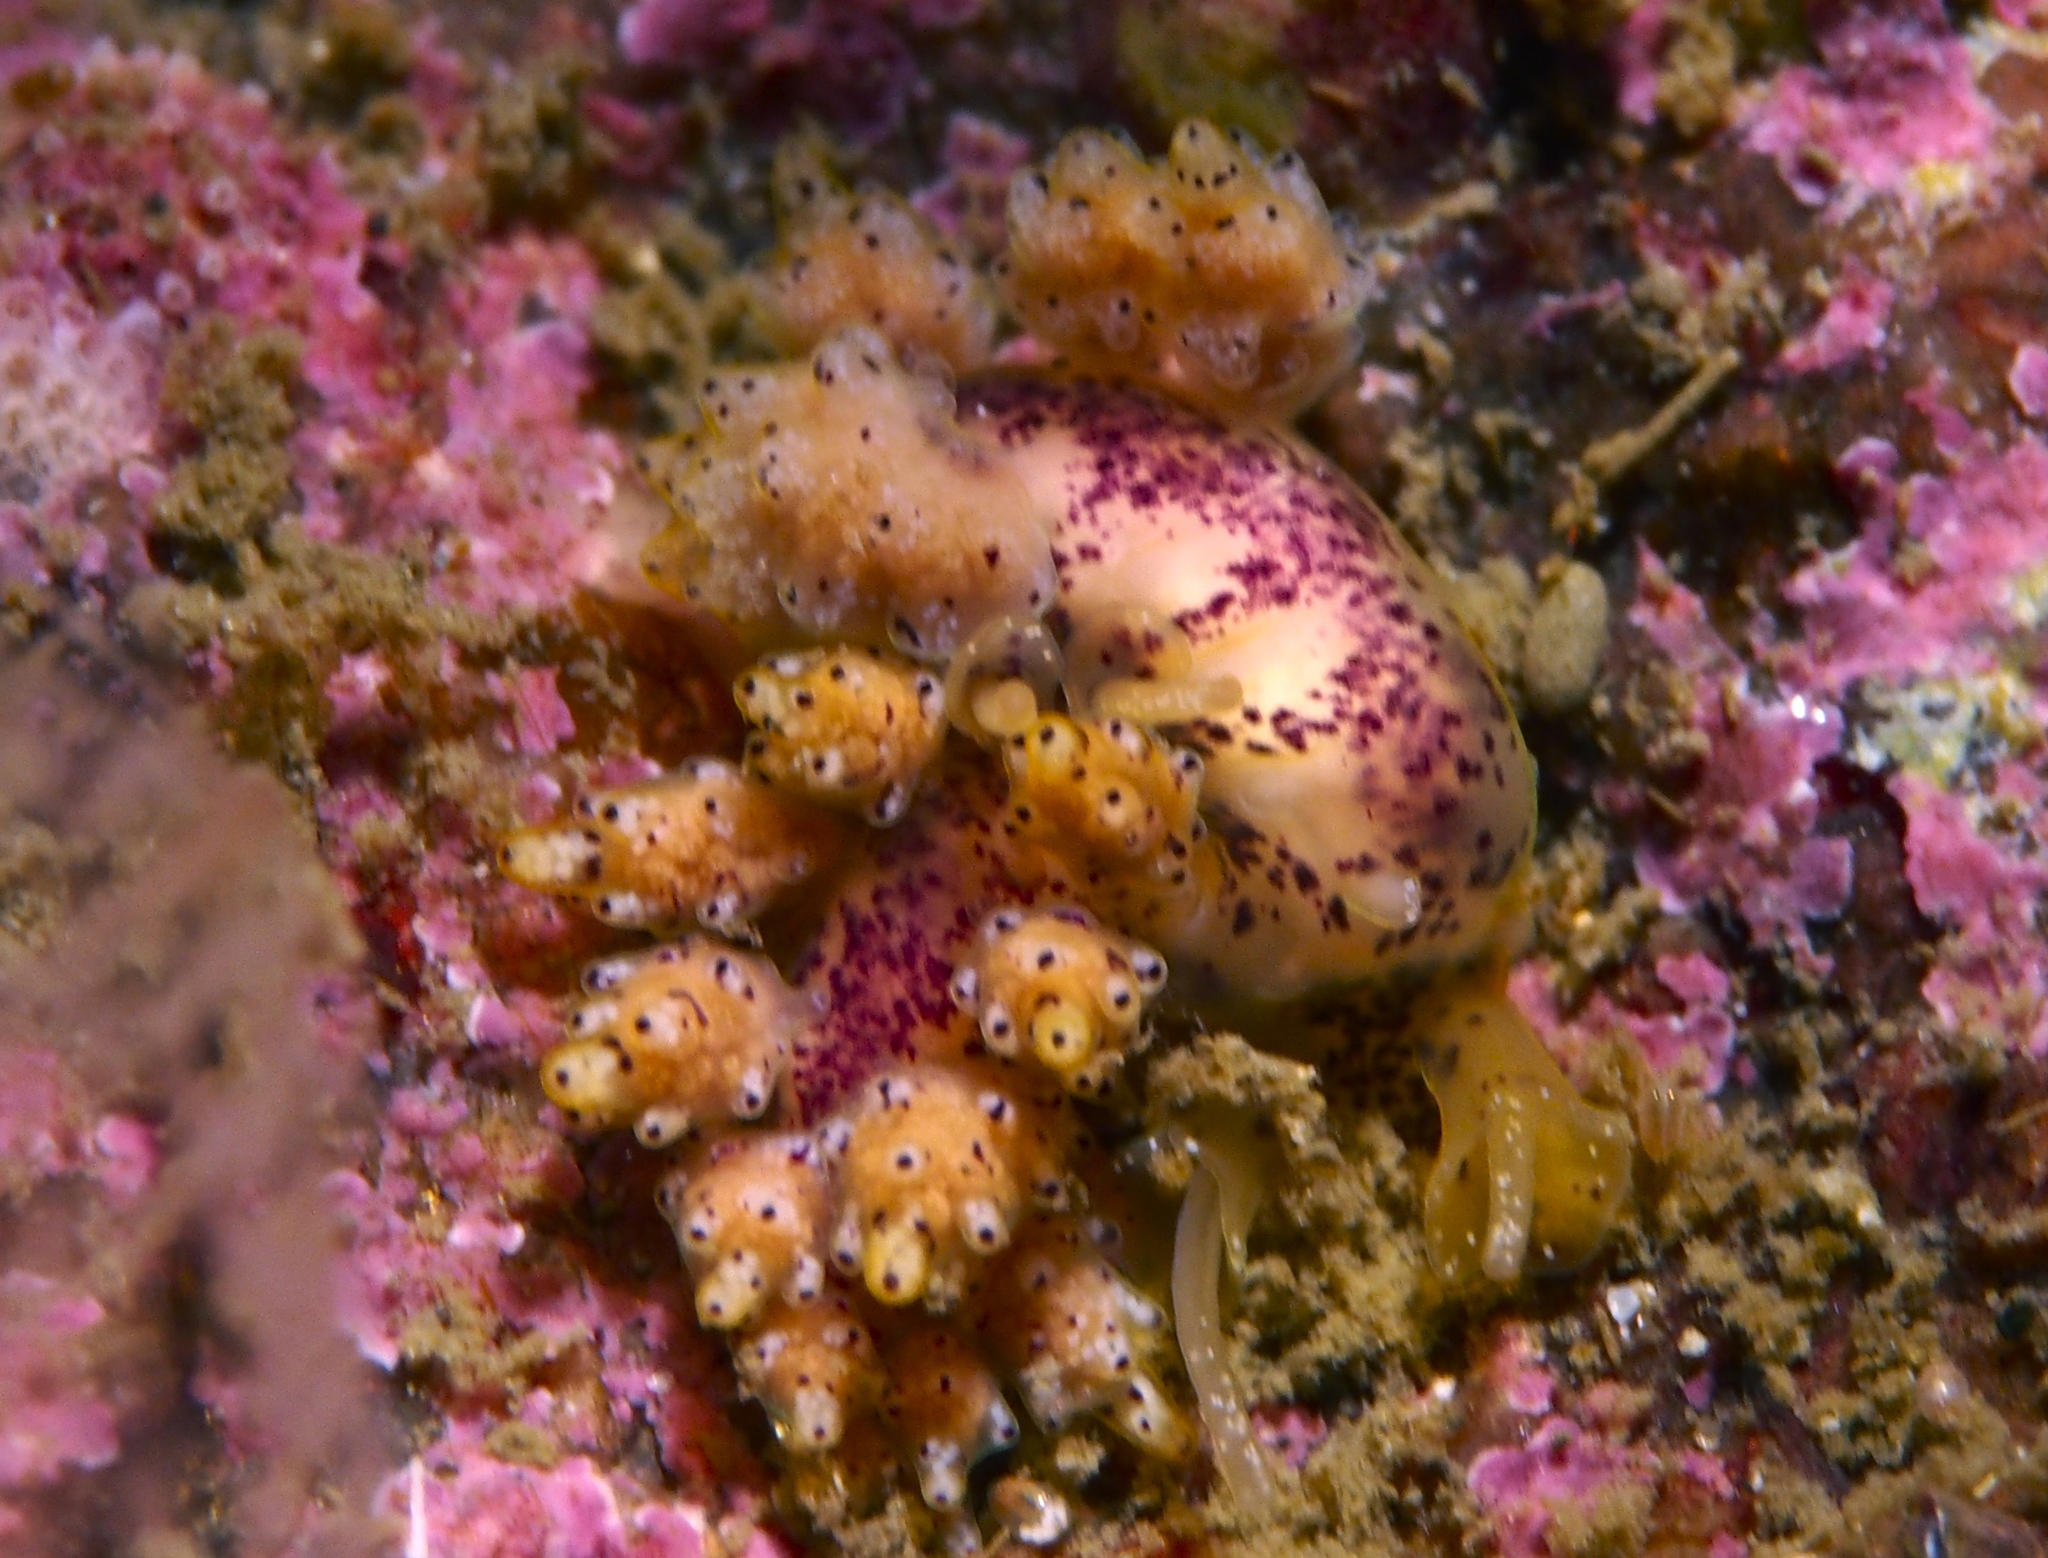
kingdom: Animalia
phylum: Mollusca
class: Gastropoda
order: Nudibranchia
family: Dotidae
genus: Doto
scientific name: Doto dunnei
